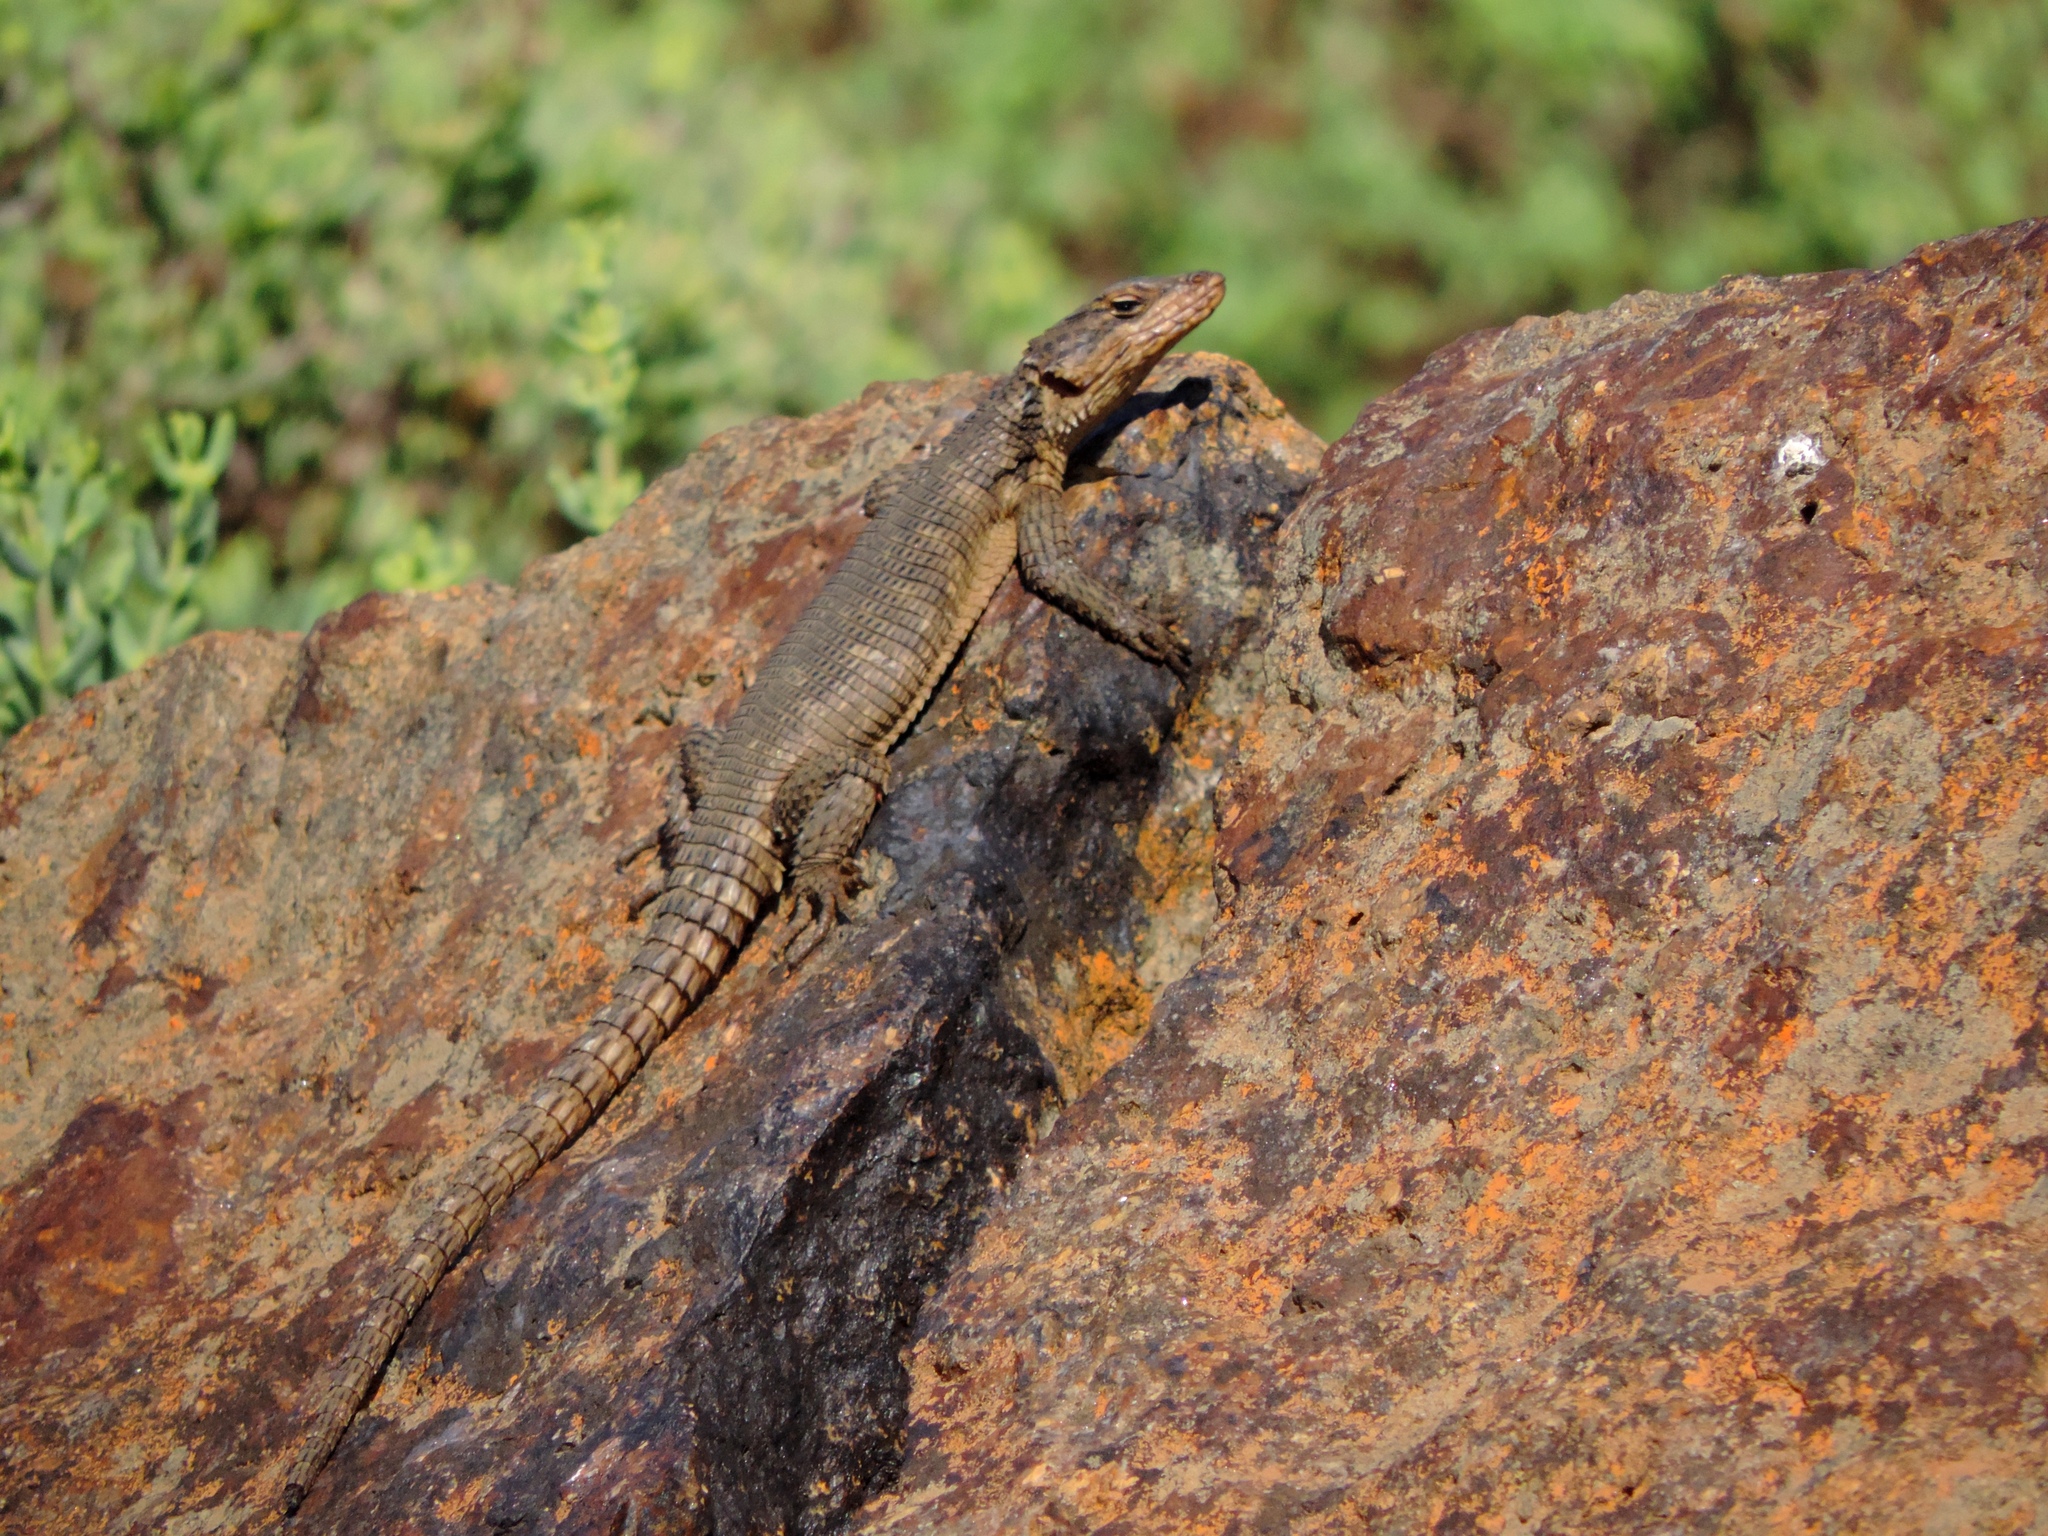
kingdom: Animalia
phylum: Chordata
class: Squamata
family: Cordylidae
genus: Karusasaurus
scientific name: Karusasaurus polyzonus
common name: Karoo girdled lizard
